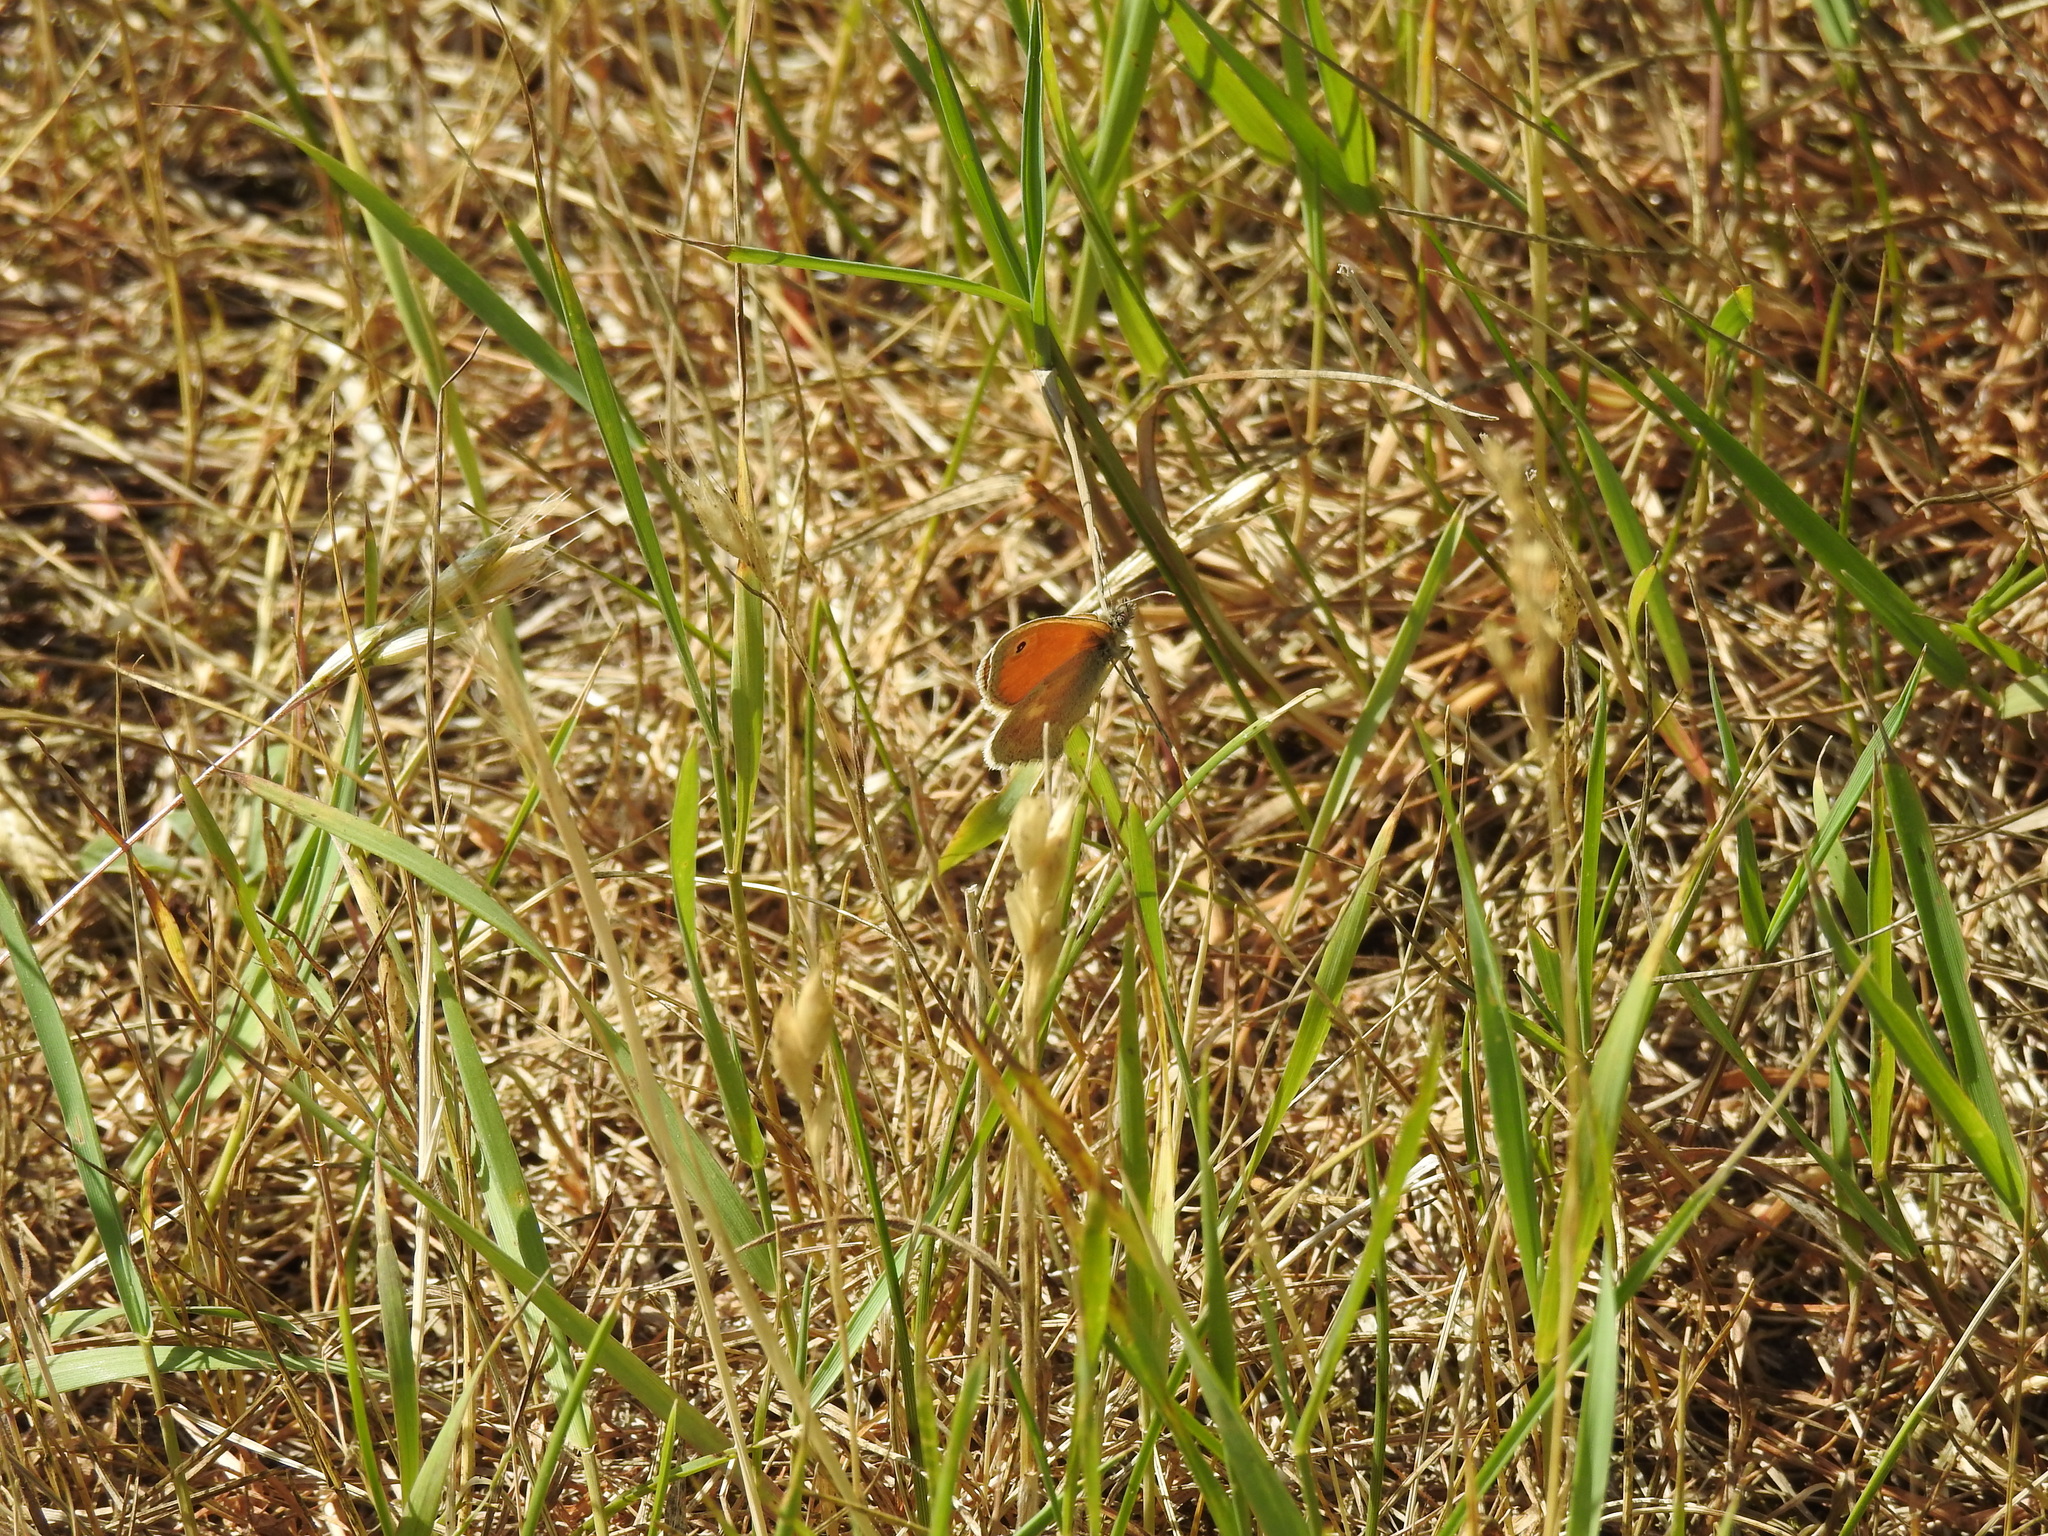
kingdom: Animalia
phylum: Arthropoda
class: Insecta
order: Lepidoptera
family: Nymphalidae
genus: Coenonympha
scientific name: Coenonympha pamphilus
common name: Small heath
